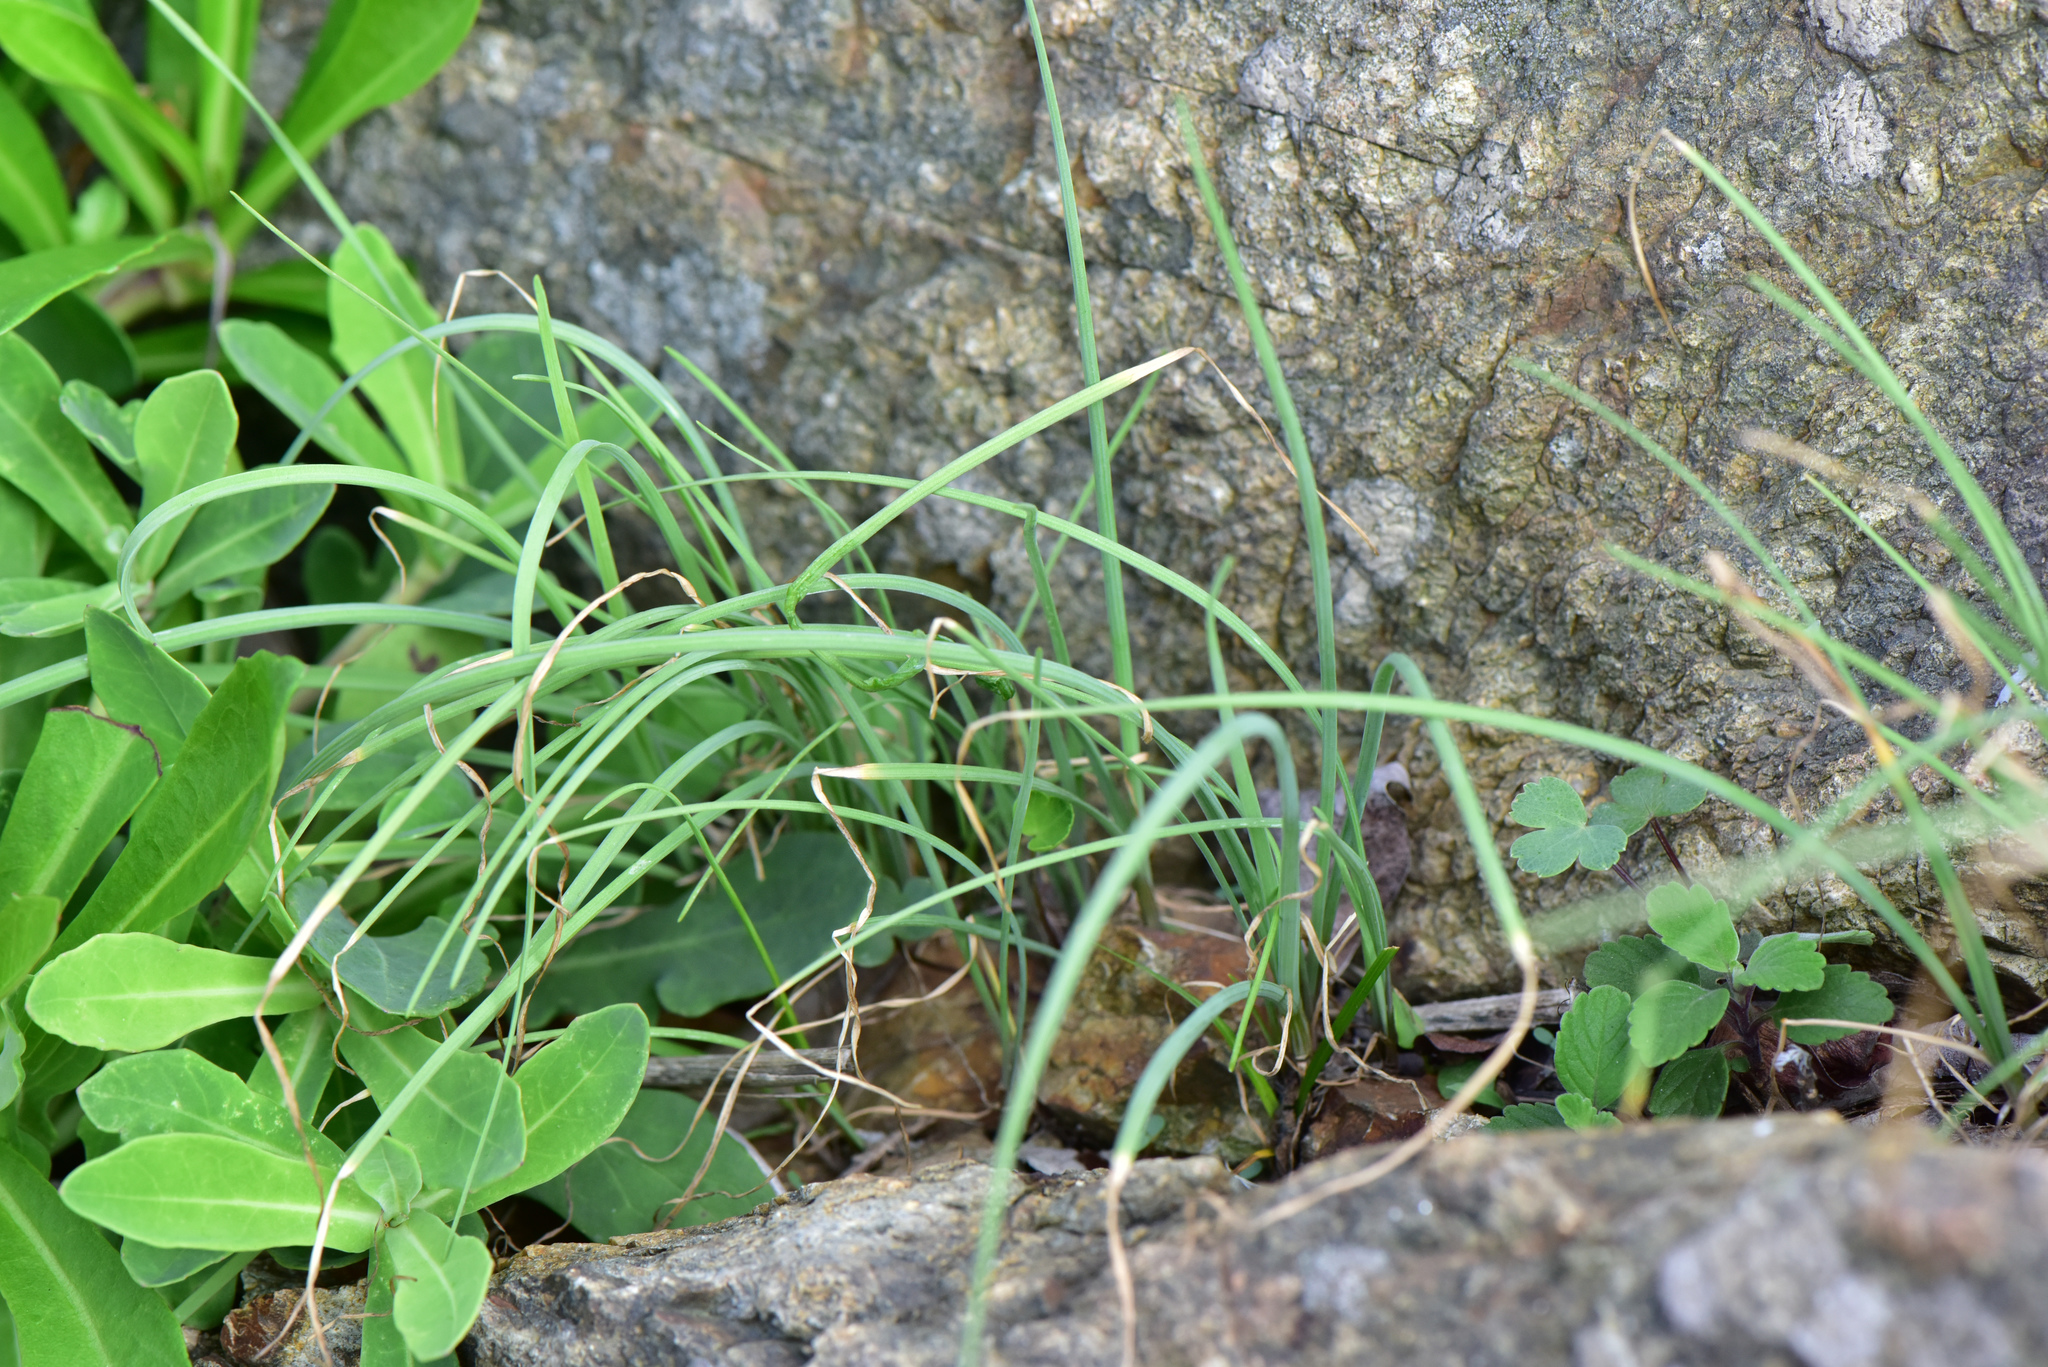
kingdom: Plantae
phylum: Tracheophyta
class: Liliopsida
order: Asparagales
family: Amaryllidaceae
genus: Allium
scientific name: Allium macrostemon
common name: Chinese garlic
